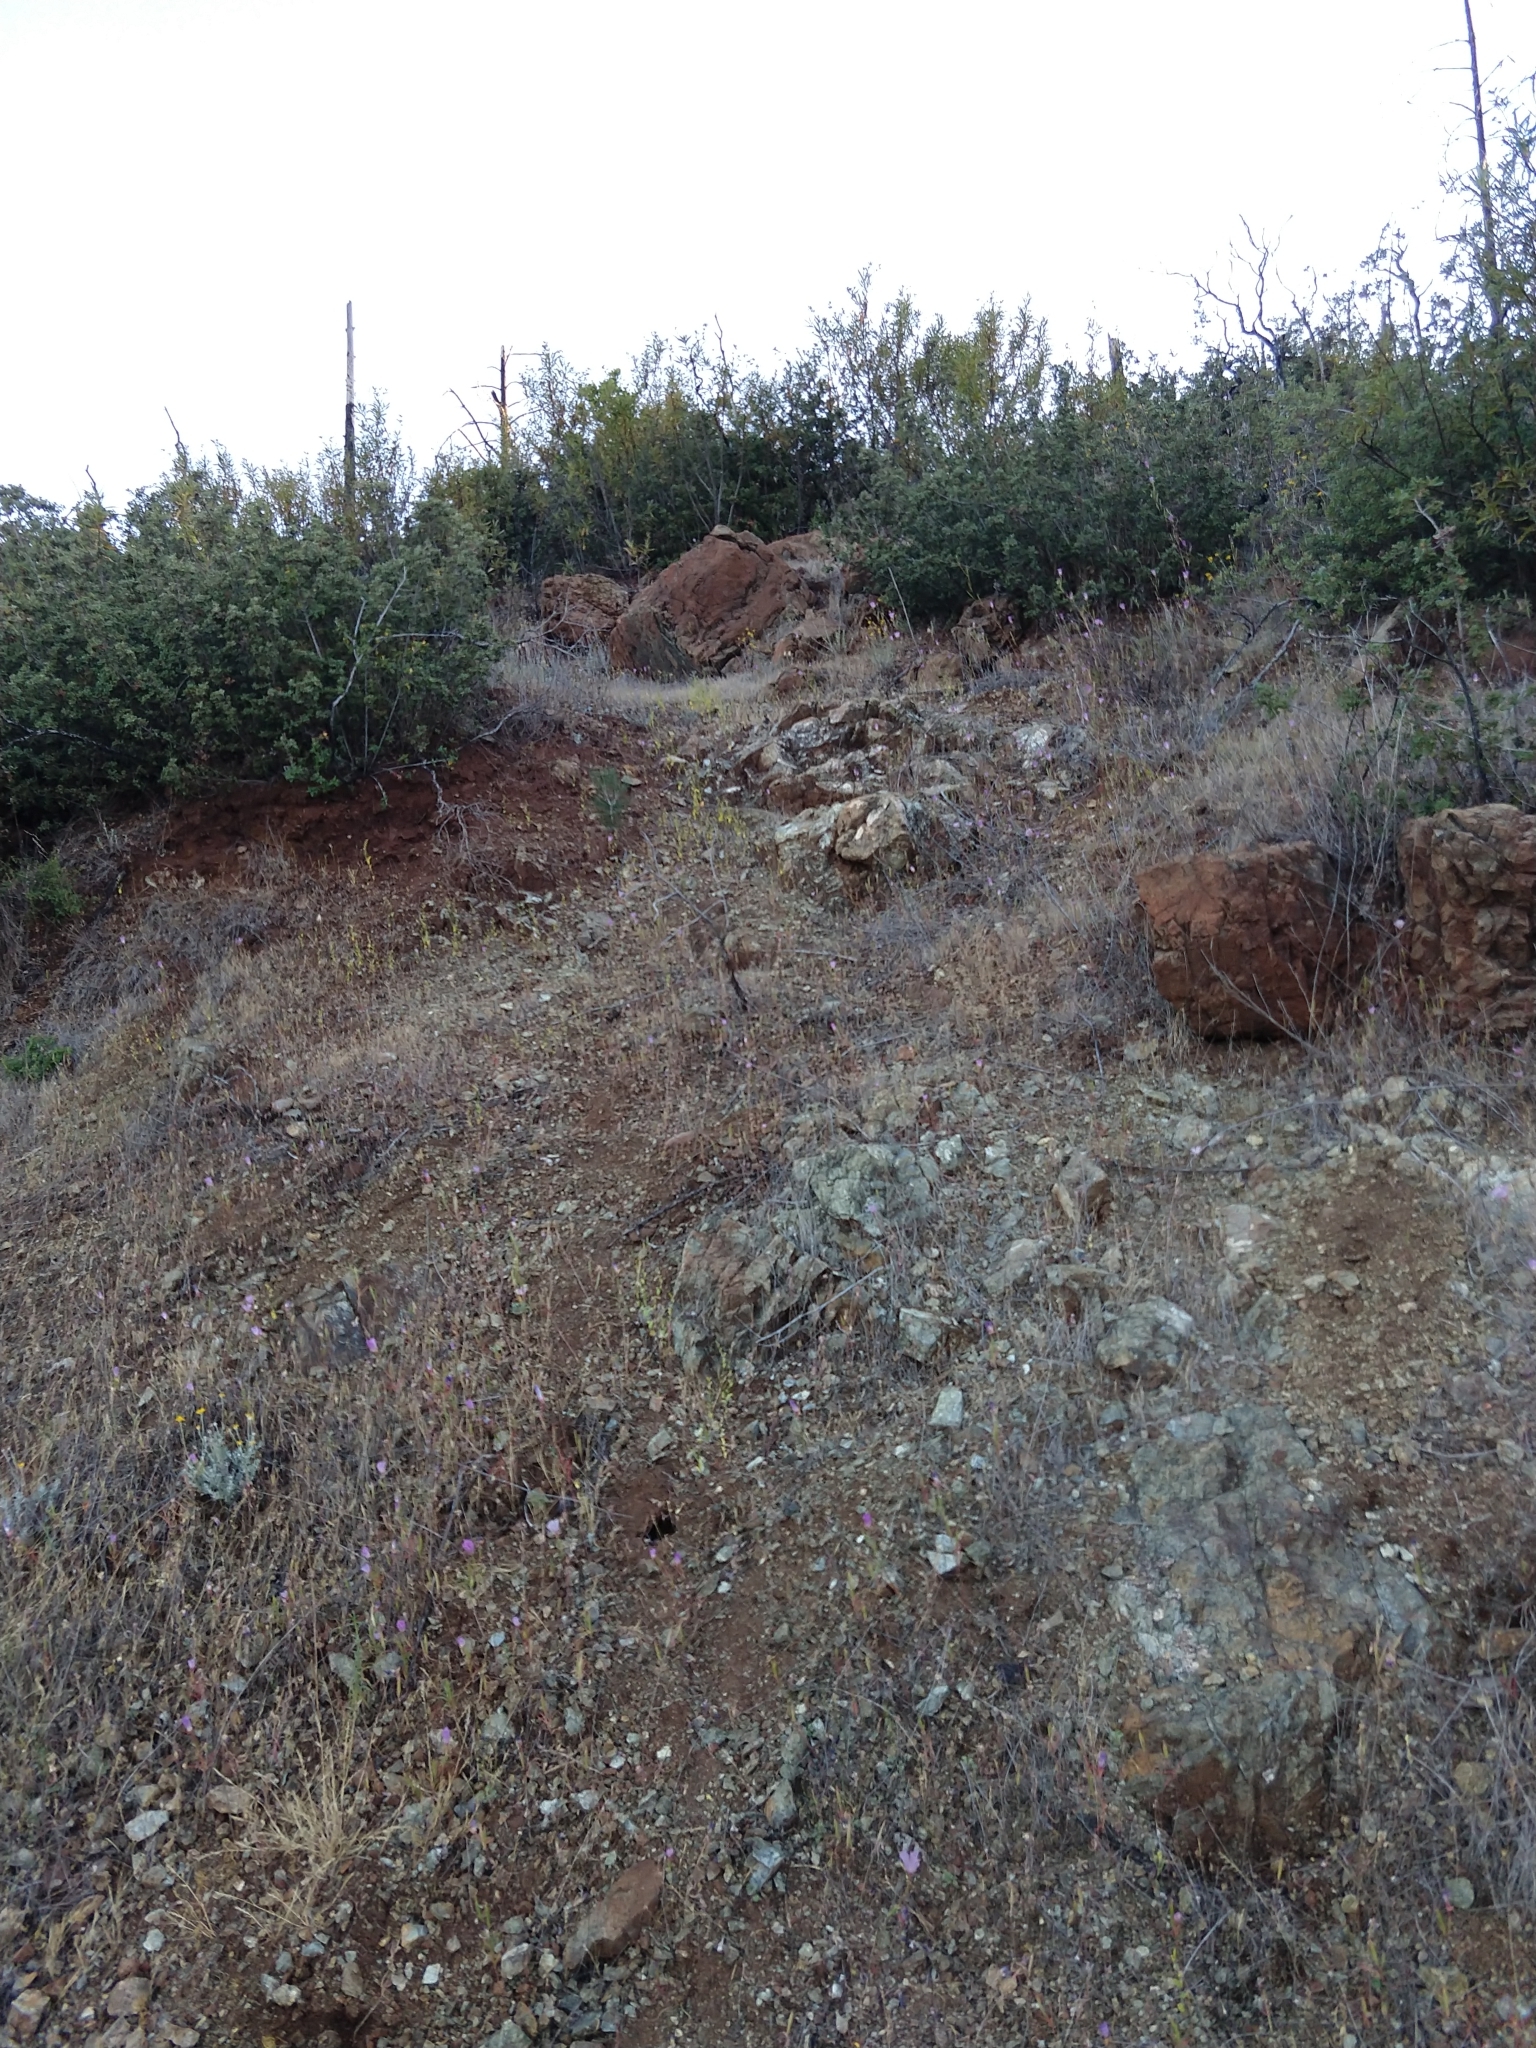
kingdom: Plantae
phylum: Tracheophyta
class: Magnoliopsida
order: Brassicales
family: Brassicaceae
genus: Streptanthus
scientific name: Streptanthus hesperidis
